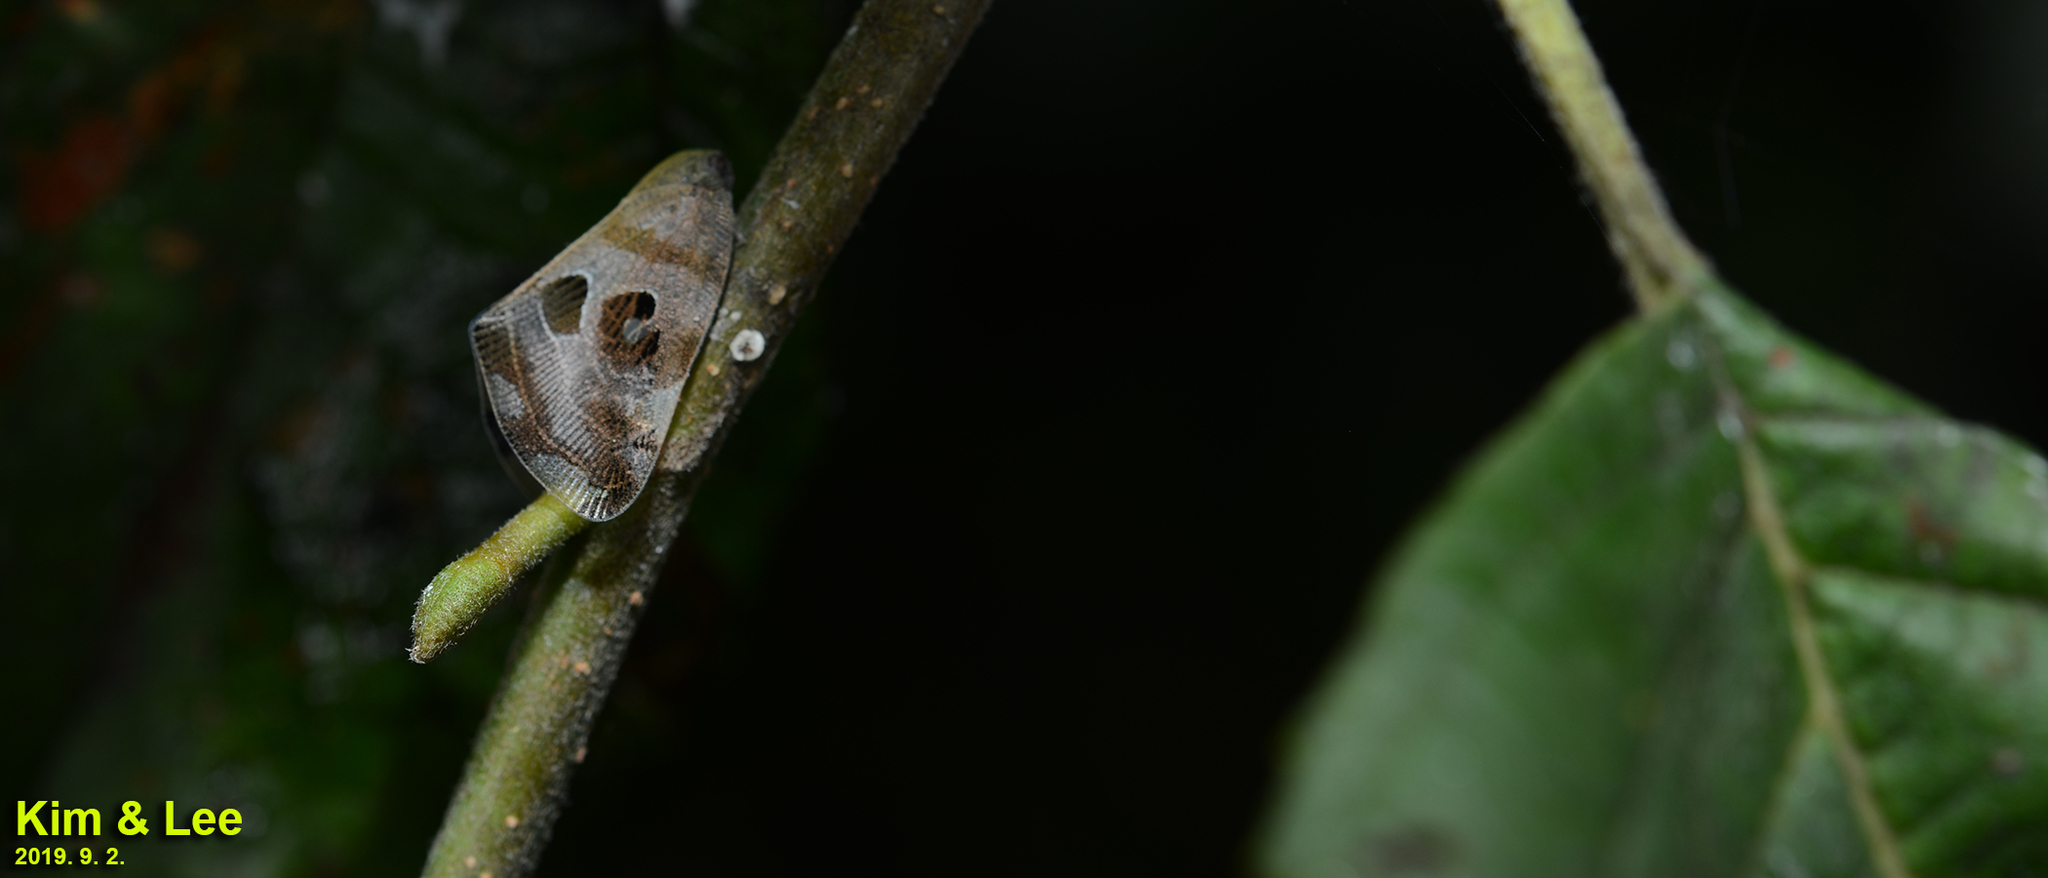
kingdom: Animalia
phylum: Arthropoda
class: Insecta
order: Hemiptera
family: Ricaniidae
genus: Ricania
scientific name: Ricania speculum
